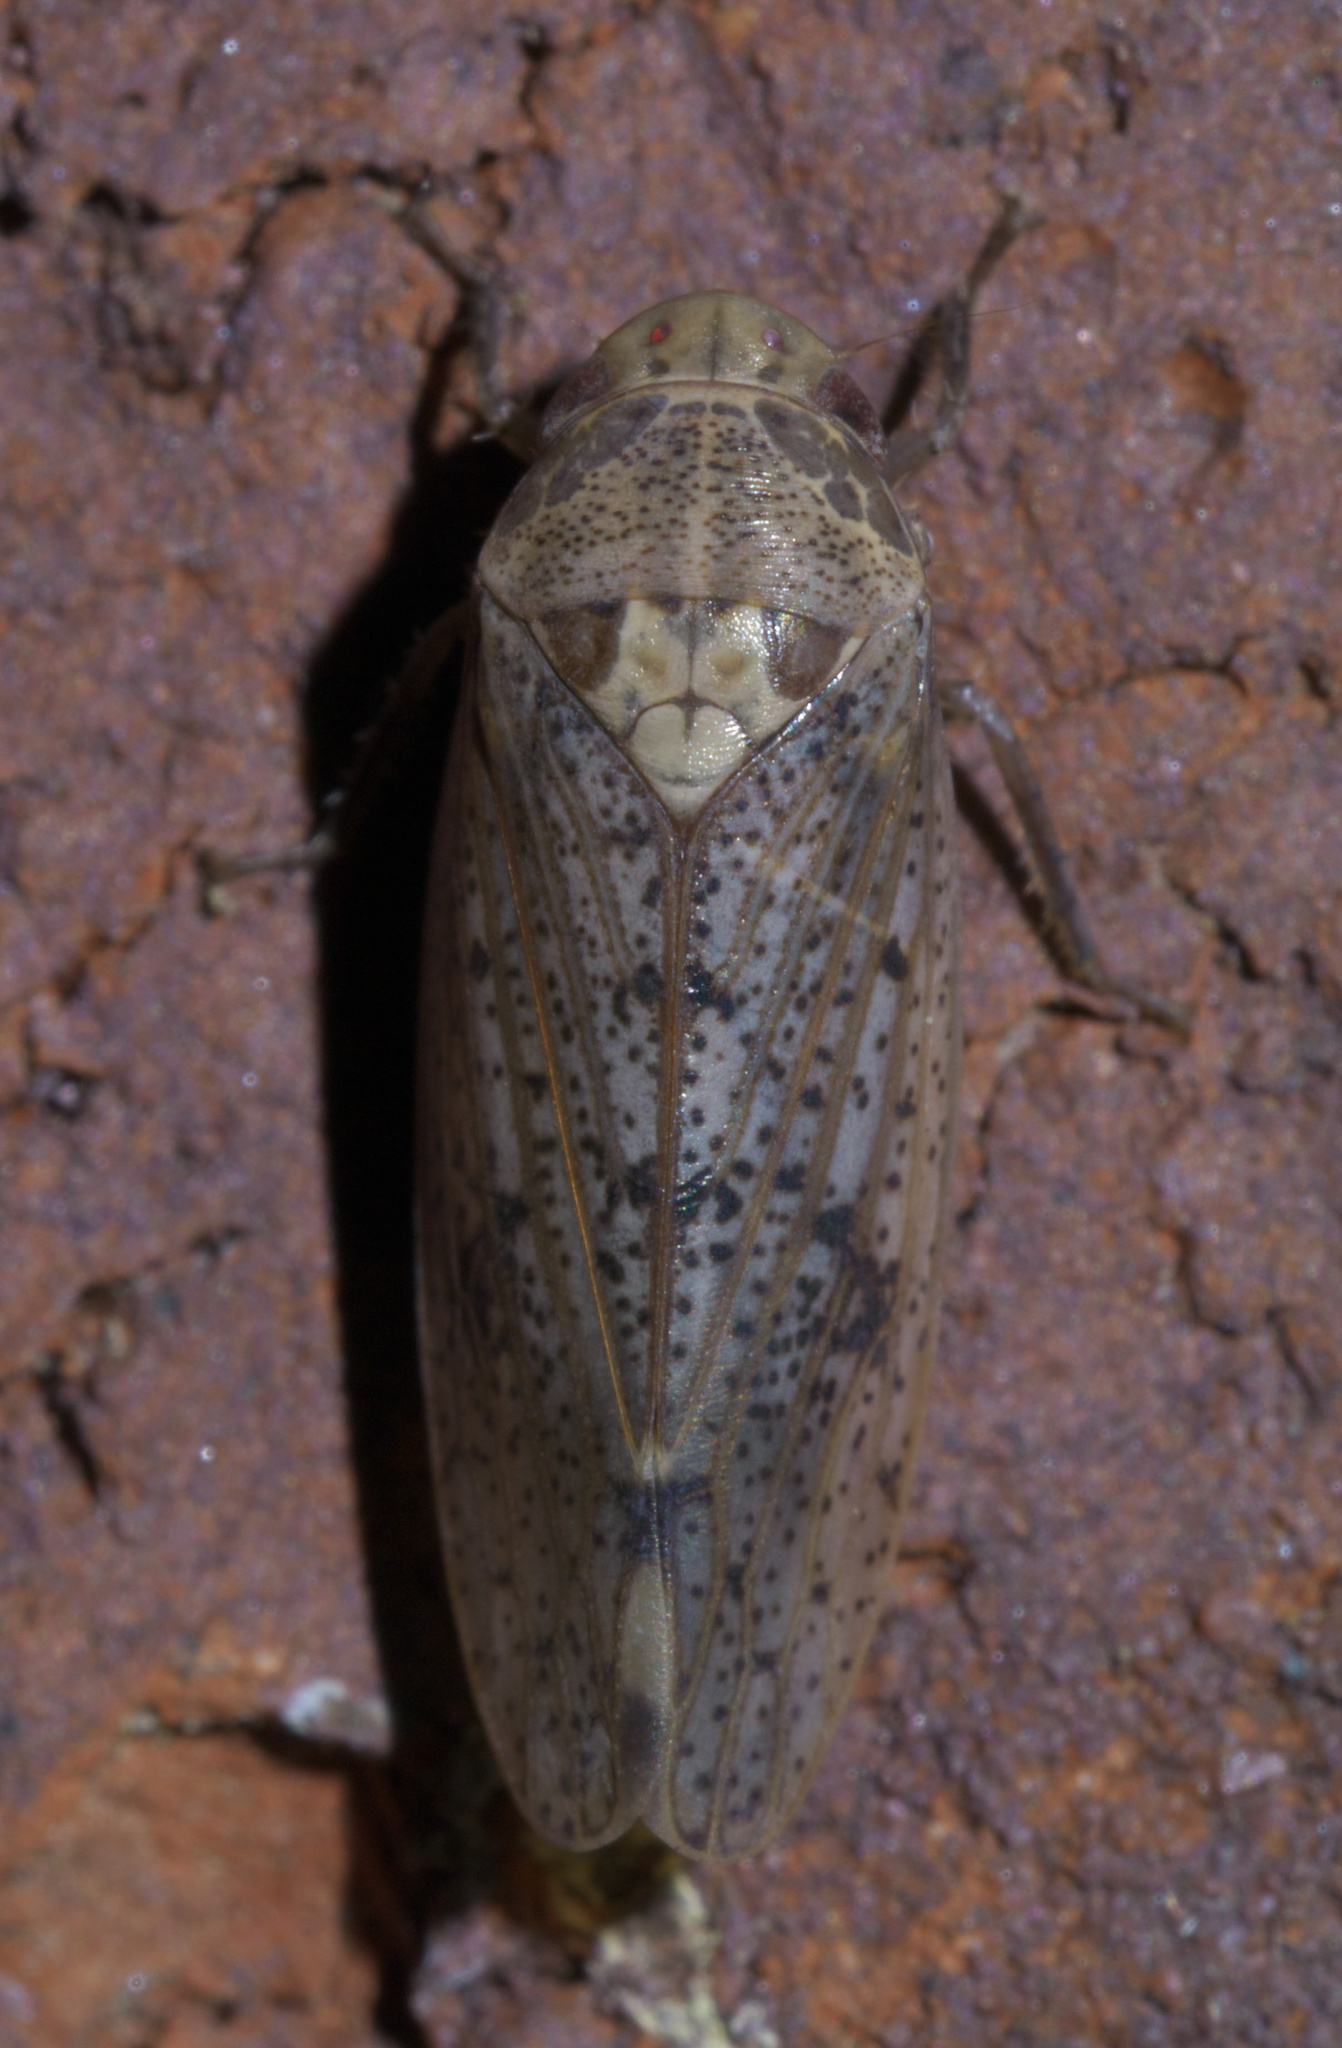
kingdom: Animalia
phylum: Arthropoda
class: Insecta
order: Hemiptera
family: Cicadellidae
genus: Ponana
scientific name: Ponana puncticollis
